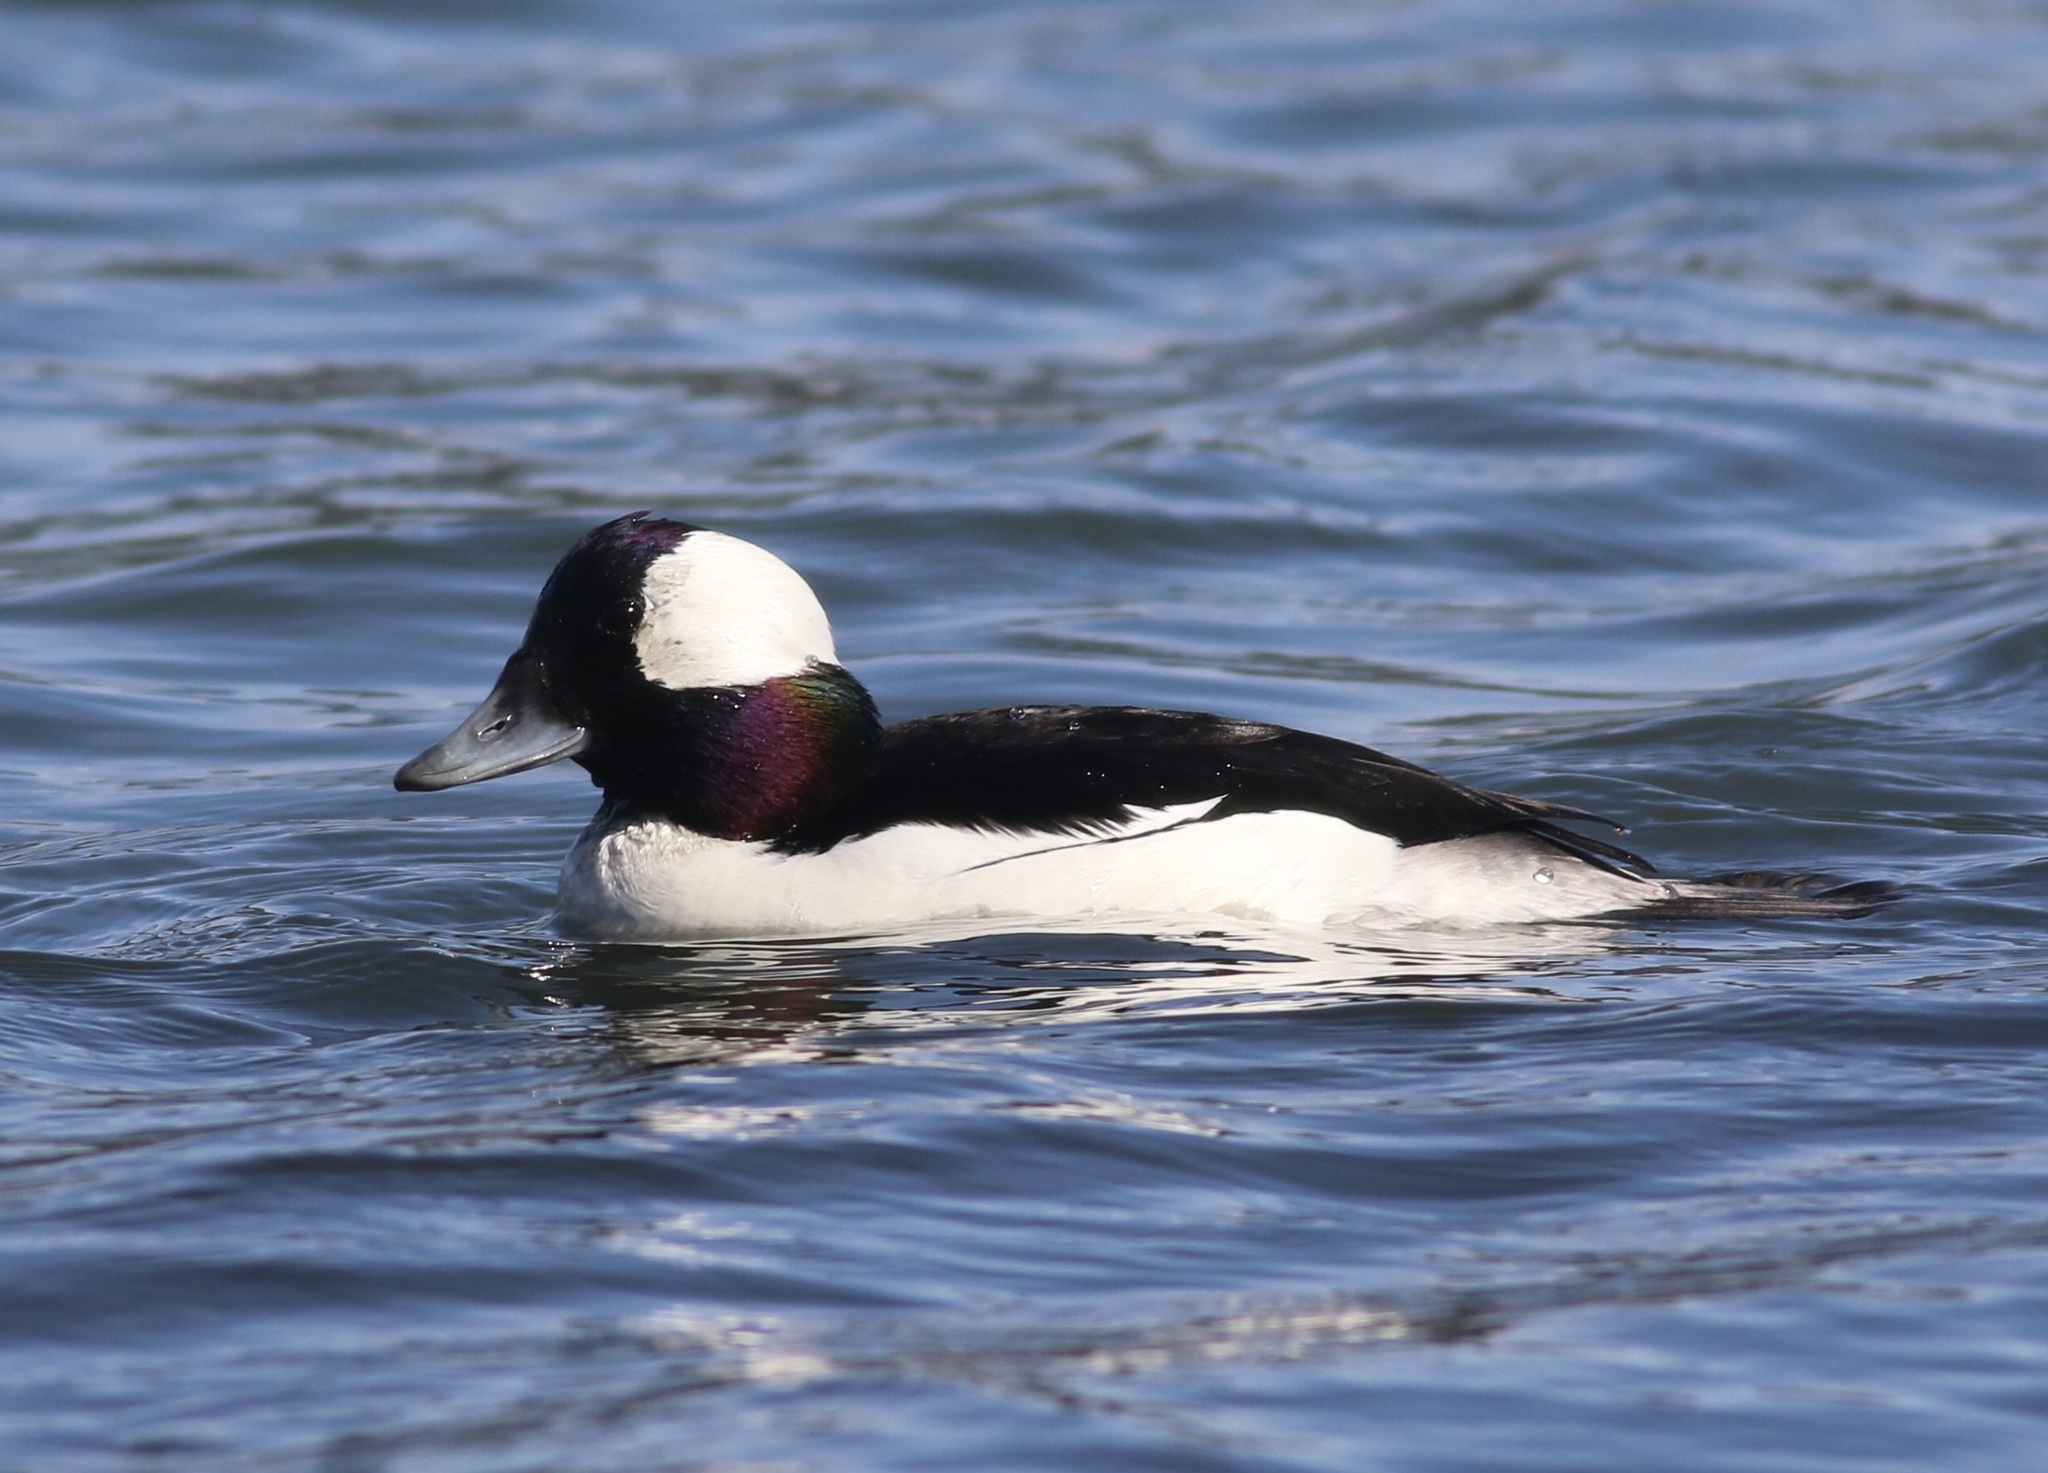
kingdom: Animalia
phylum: Chordata
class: Aves
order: Anseriformes
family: Anatidae
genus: Bucephala
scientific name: Bucephala albeola
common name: Bufflehead
